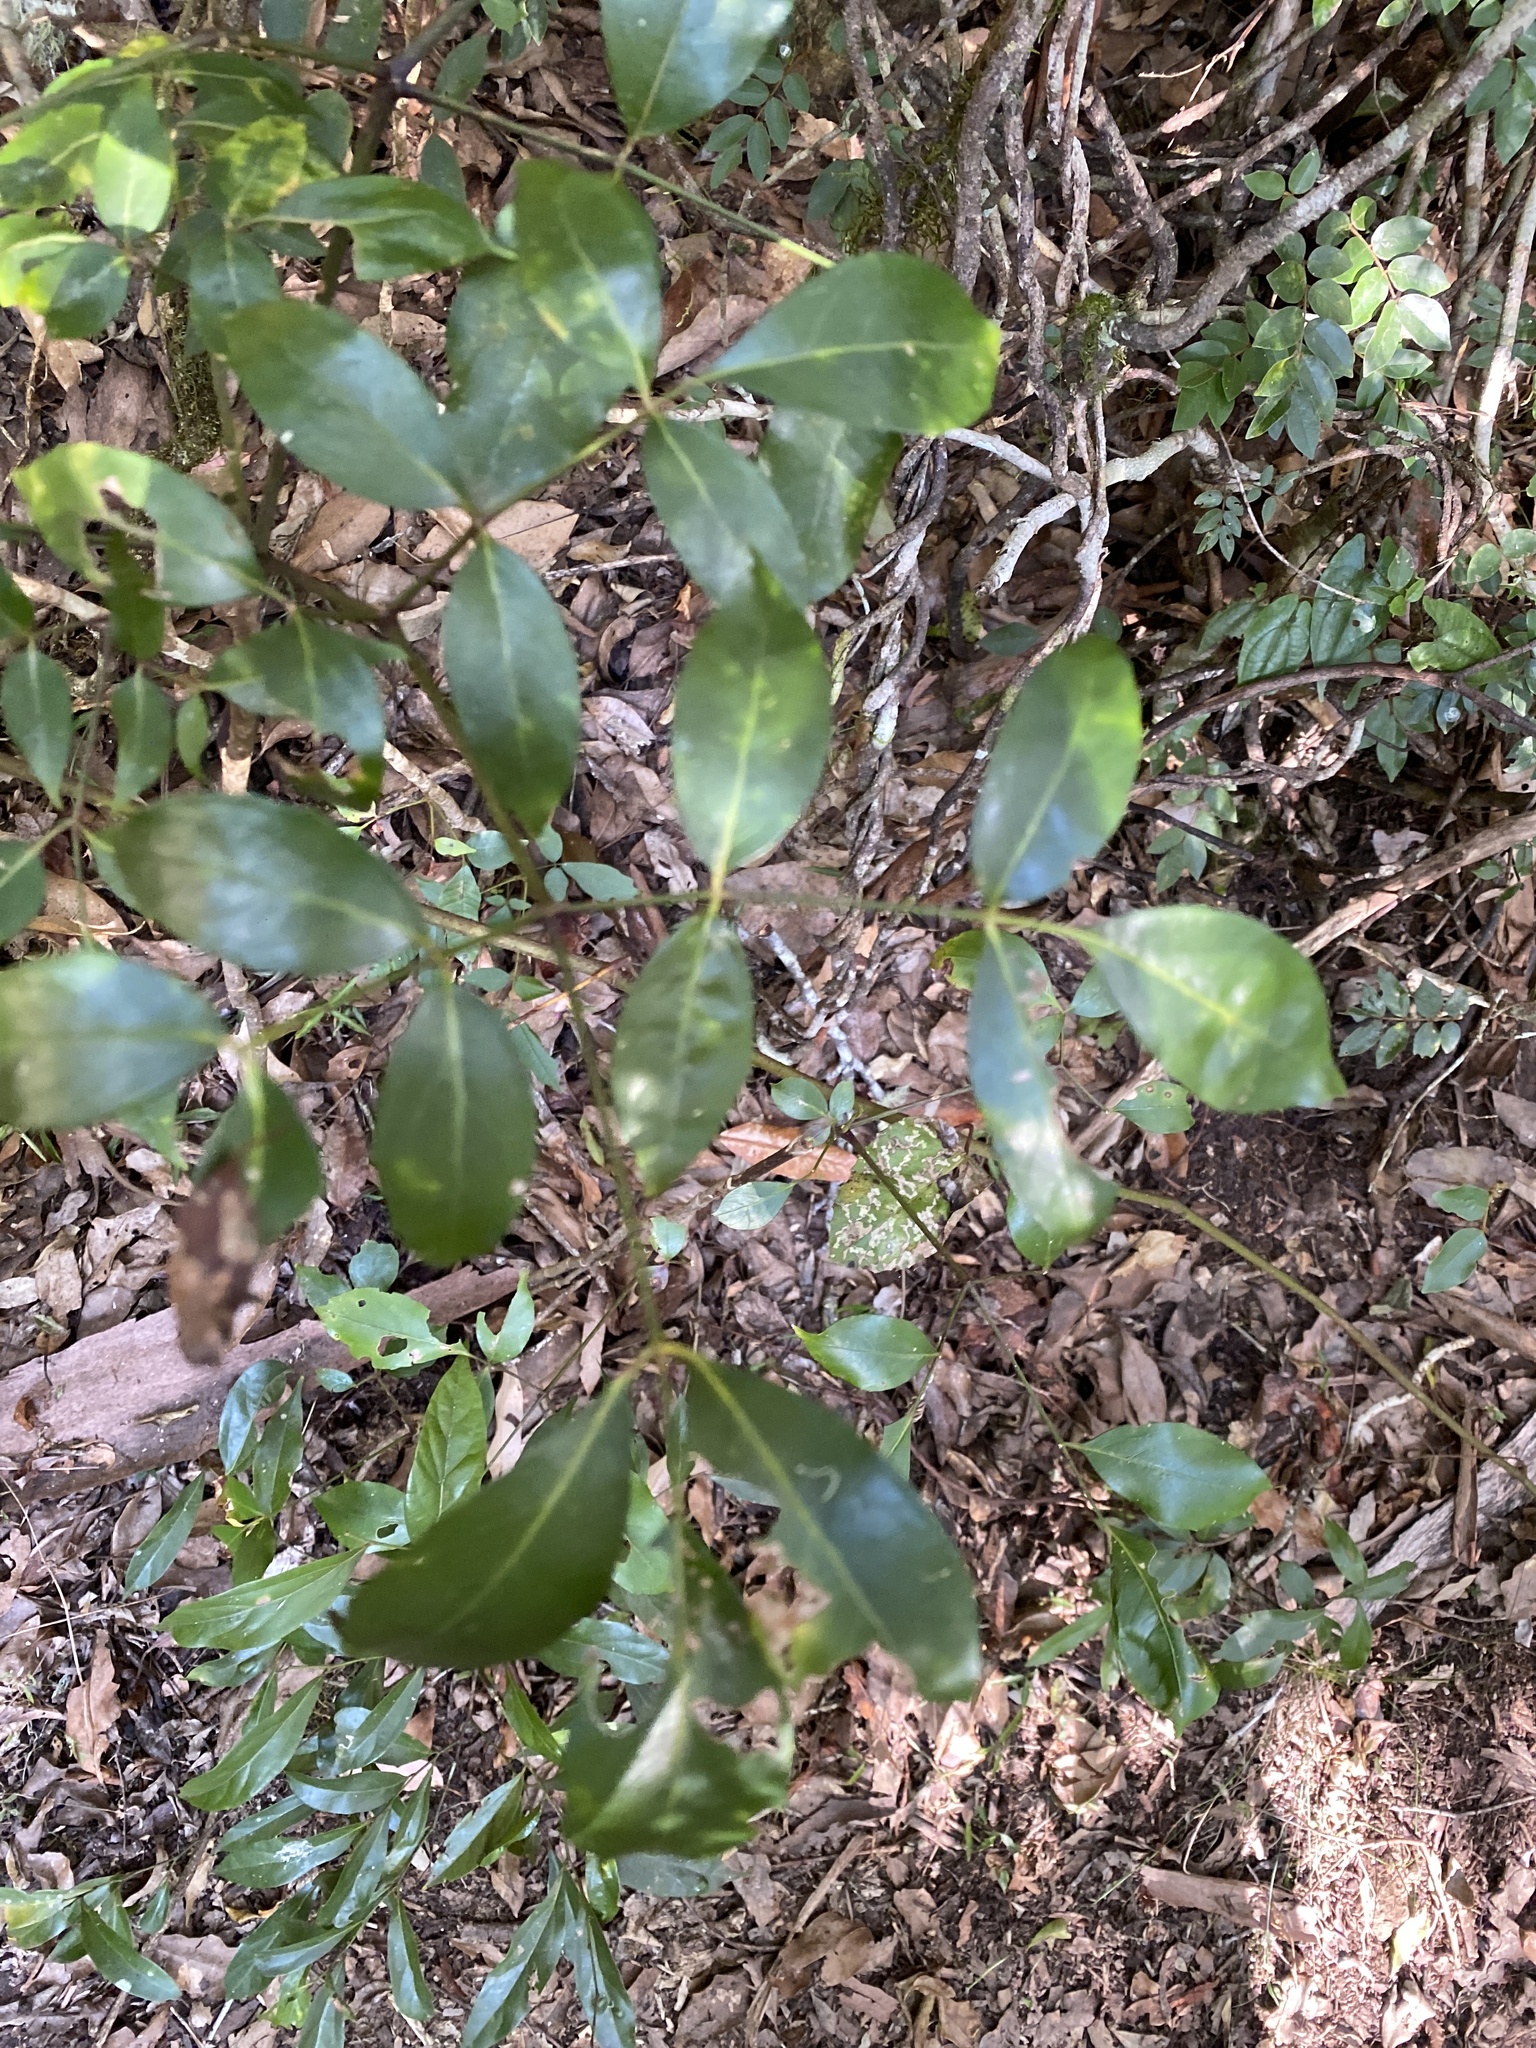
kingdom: Plantae
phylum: Tracheophyta
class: Magnoliopsida
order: Apiales
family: Araliaceae
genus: Polyscias
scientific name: Polyscias elegans
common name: Mowbulan whitewood
